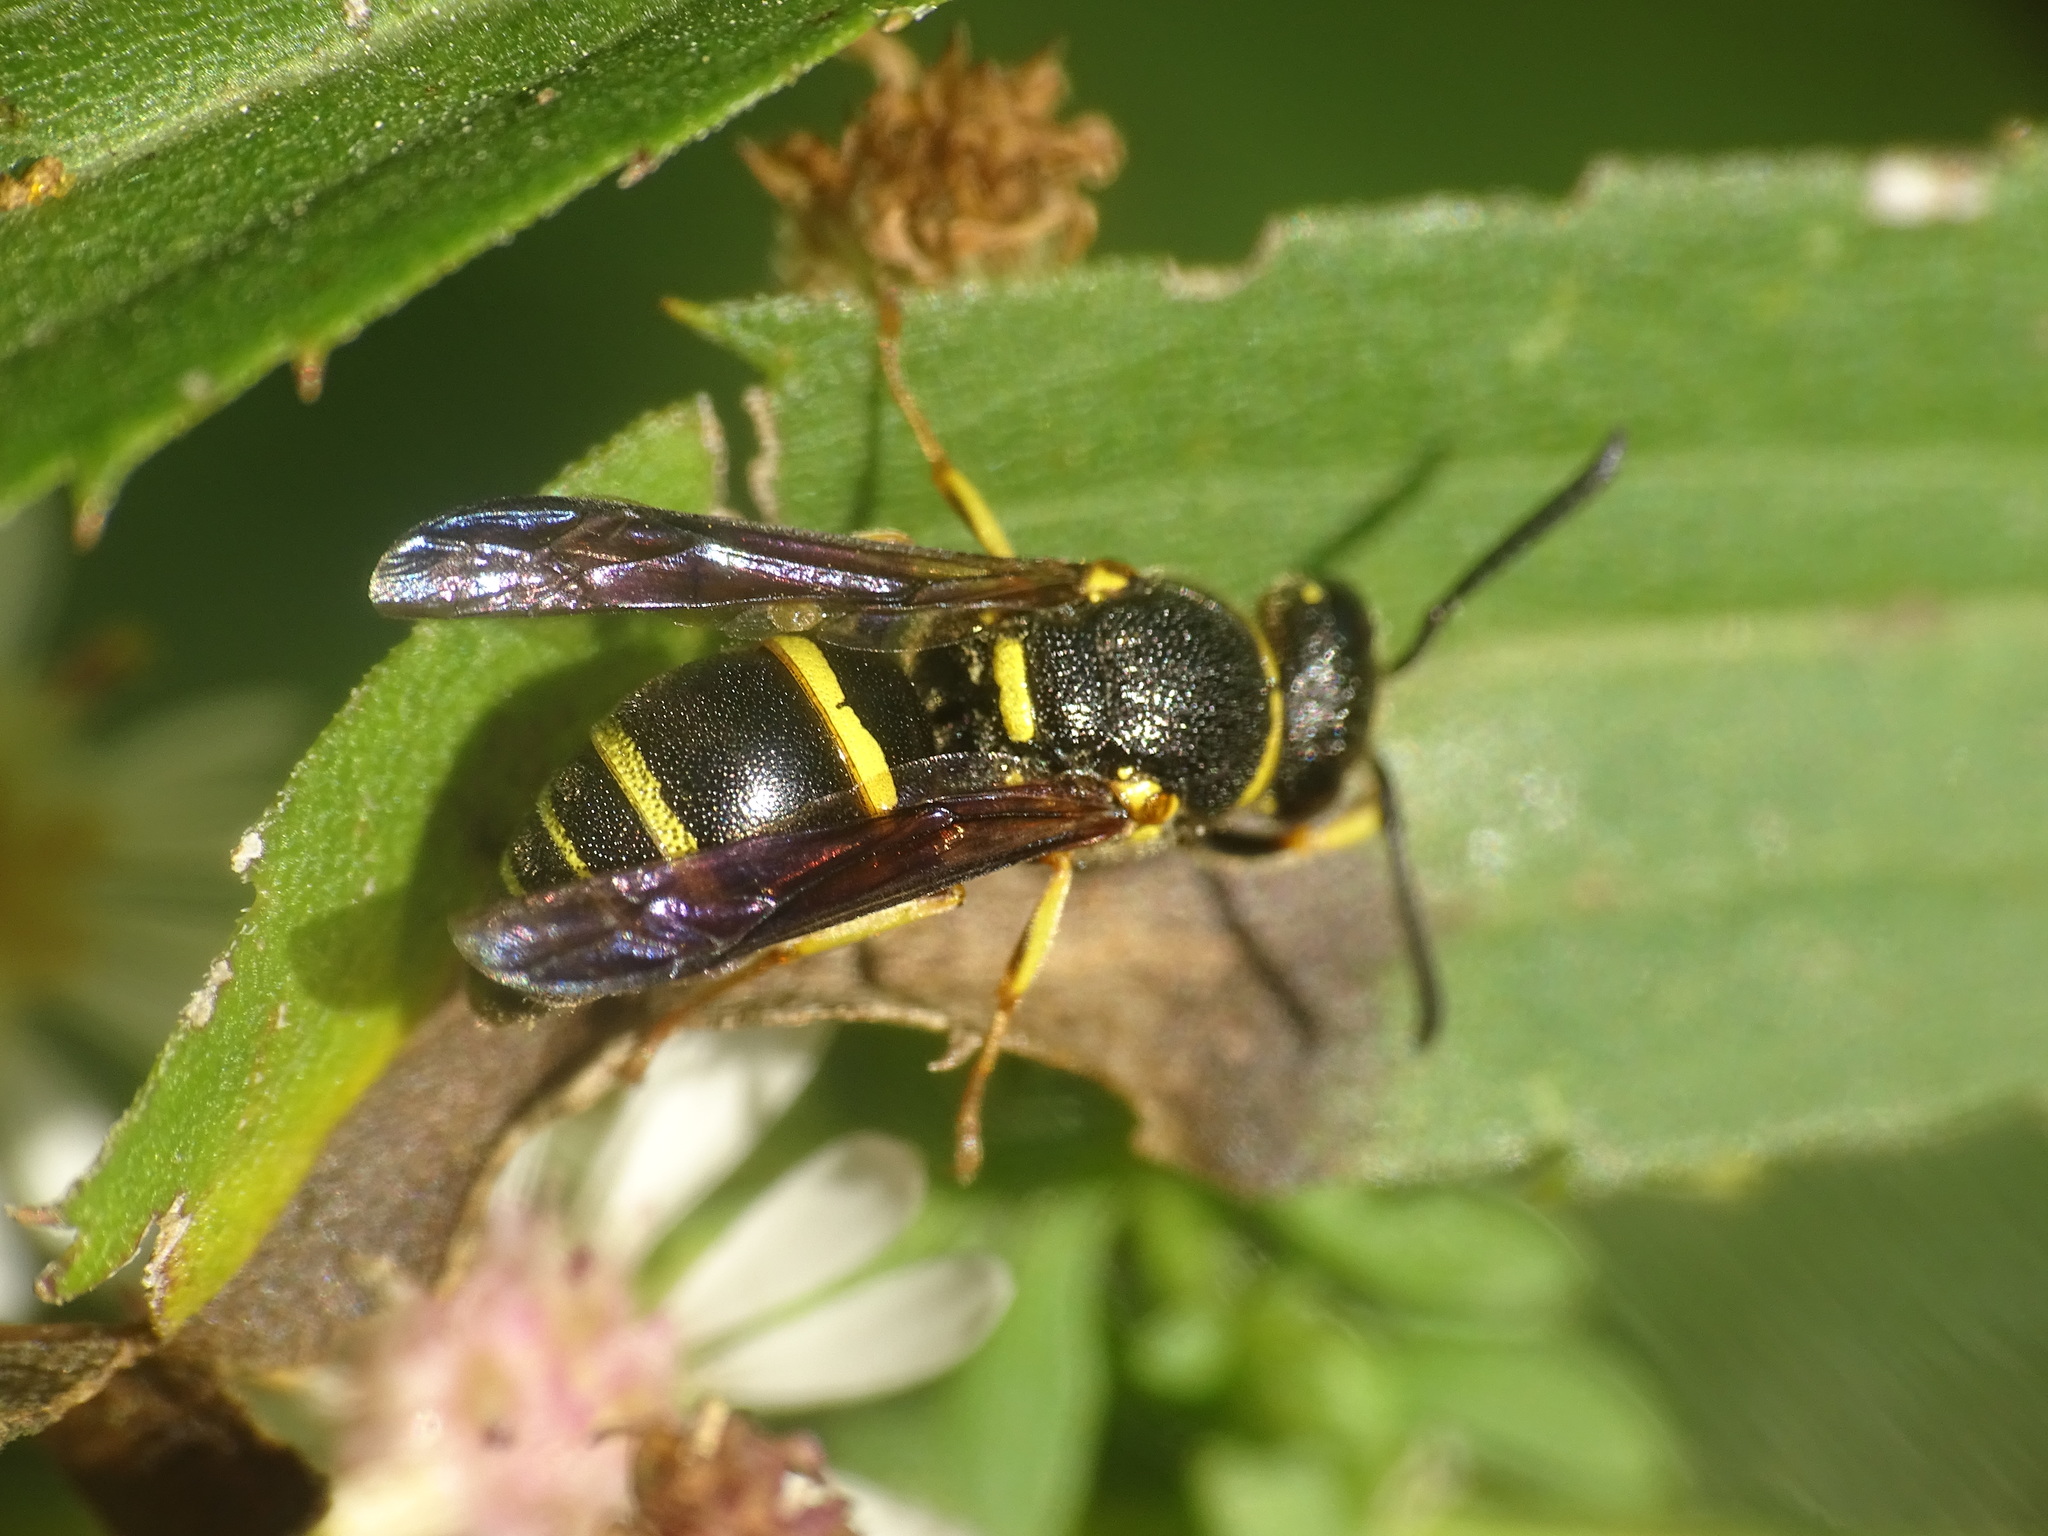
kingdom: Animalia
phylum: Arthropoda
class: Insecta
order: Hymenoptera
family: Eumenidae
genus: Euodynerus
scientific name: Euodynerus foraminatus
